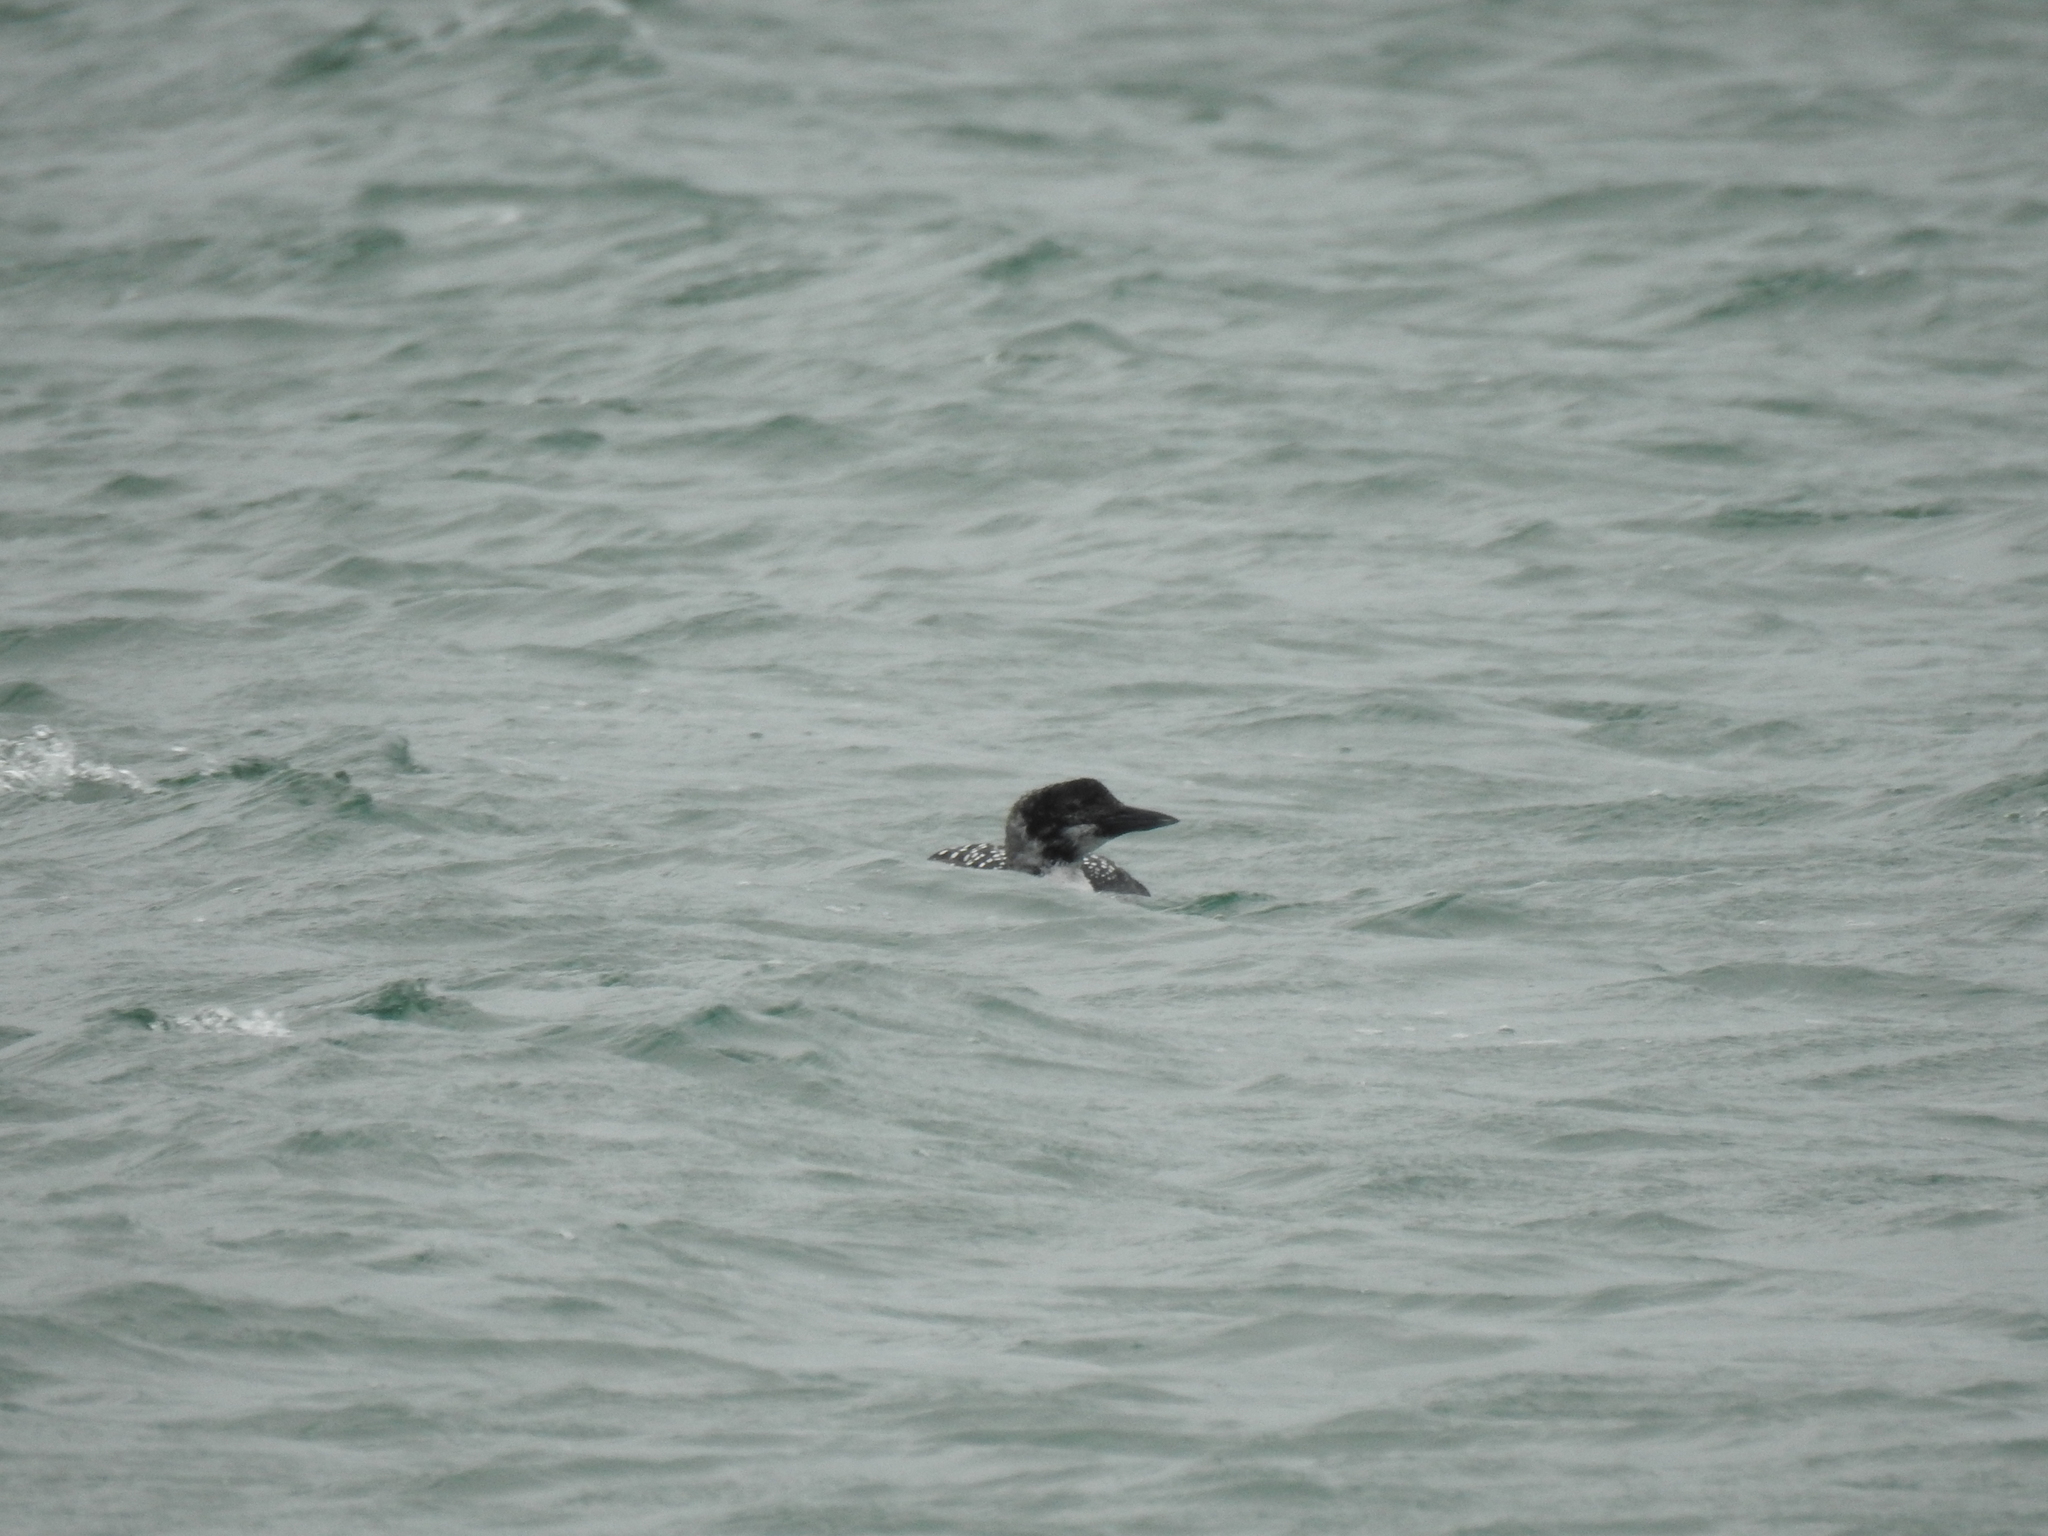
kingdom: Animalia
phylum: Chordata
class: Aves
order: Gaviiformes
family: Gaviidae
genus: Gavia
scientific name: Gavia immer
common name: Common loon
